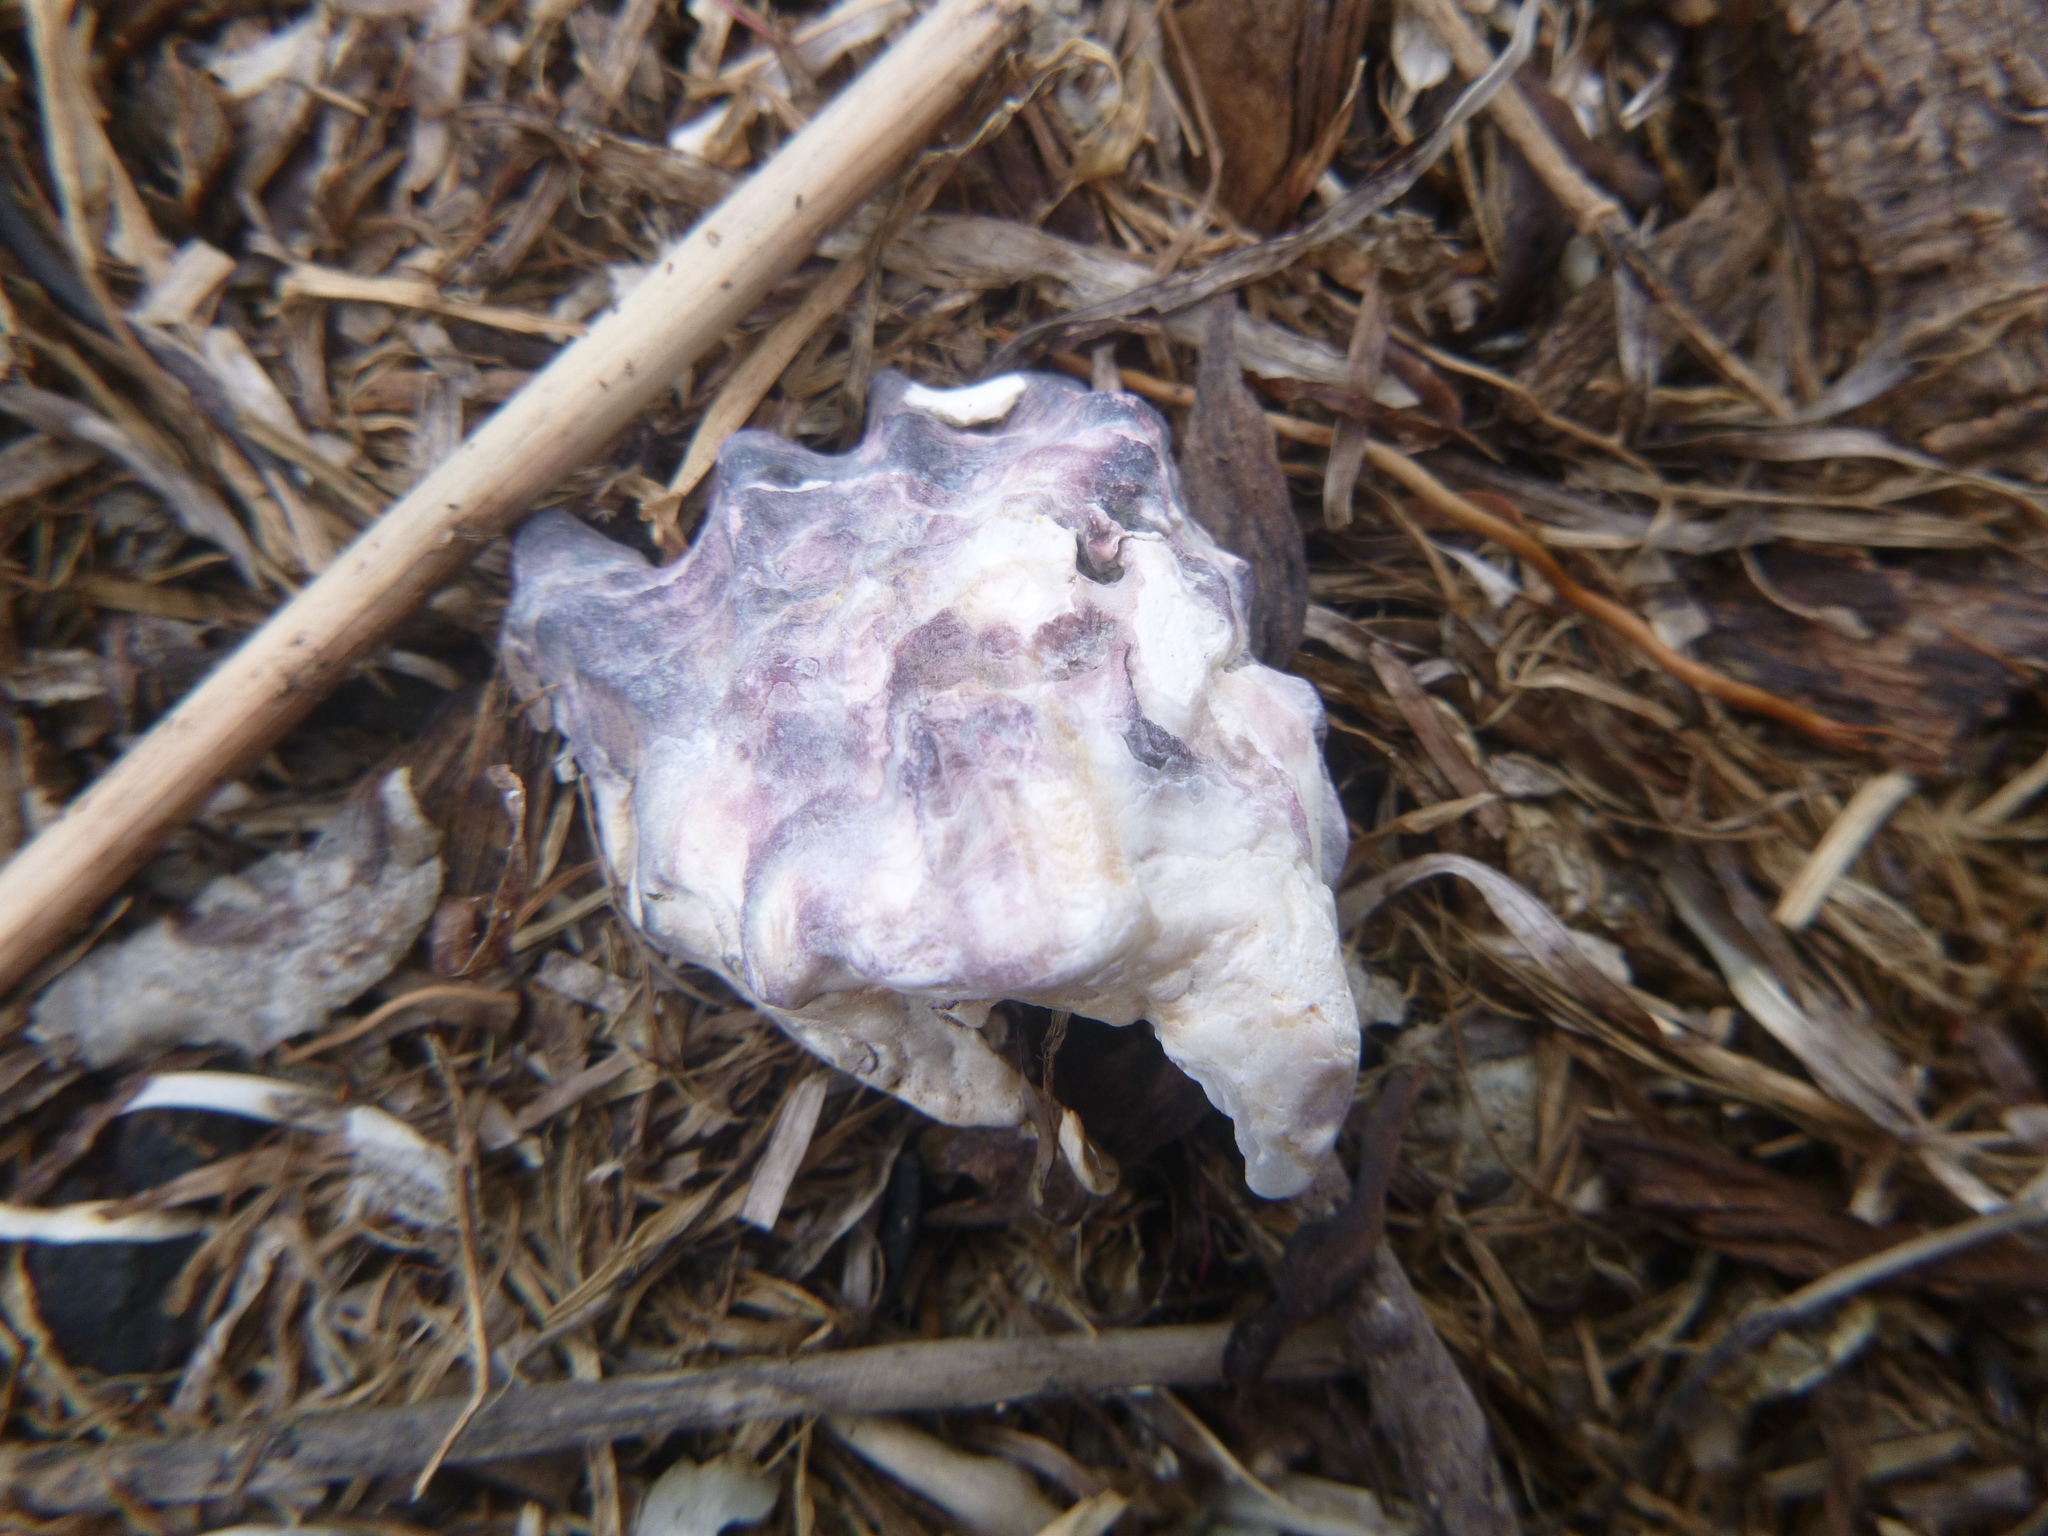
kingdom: Animalia
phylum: Mollusca
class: Bivalvia
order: Ostreida
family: Ostreidae
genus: Magallana
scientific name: Magallana gigas
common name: Pacific oyster
